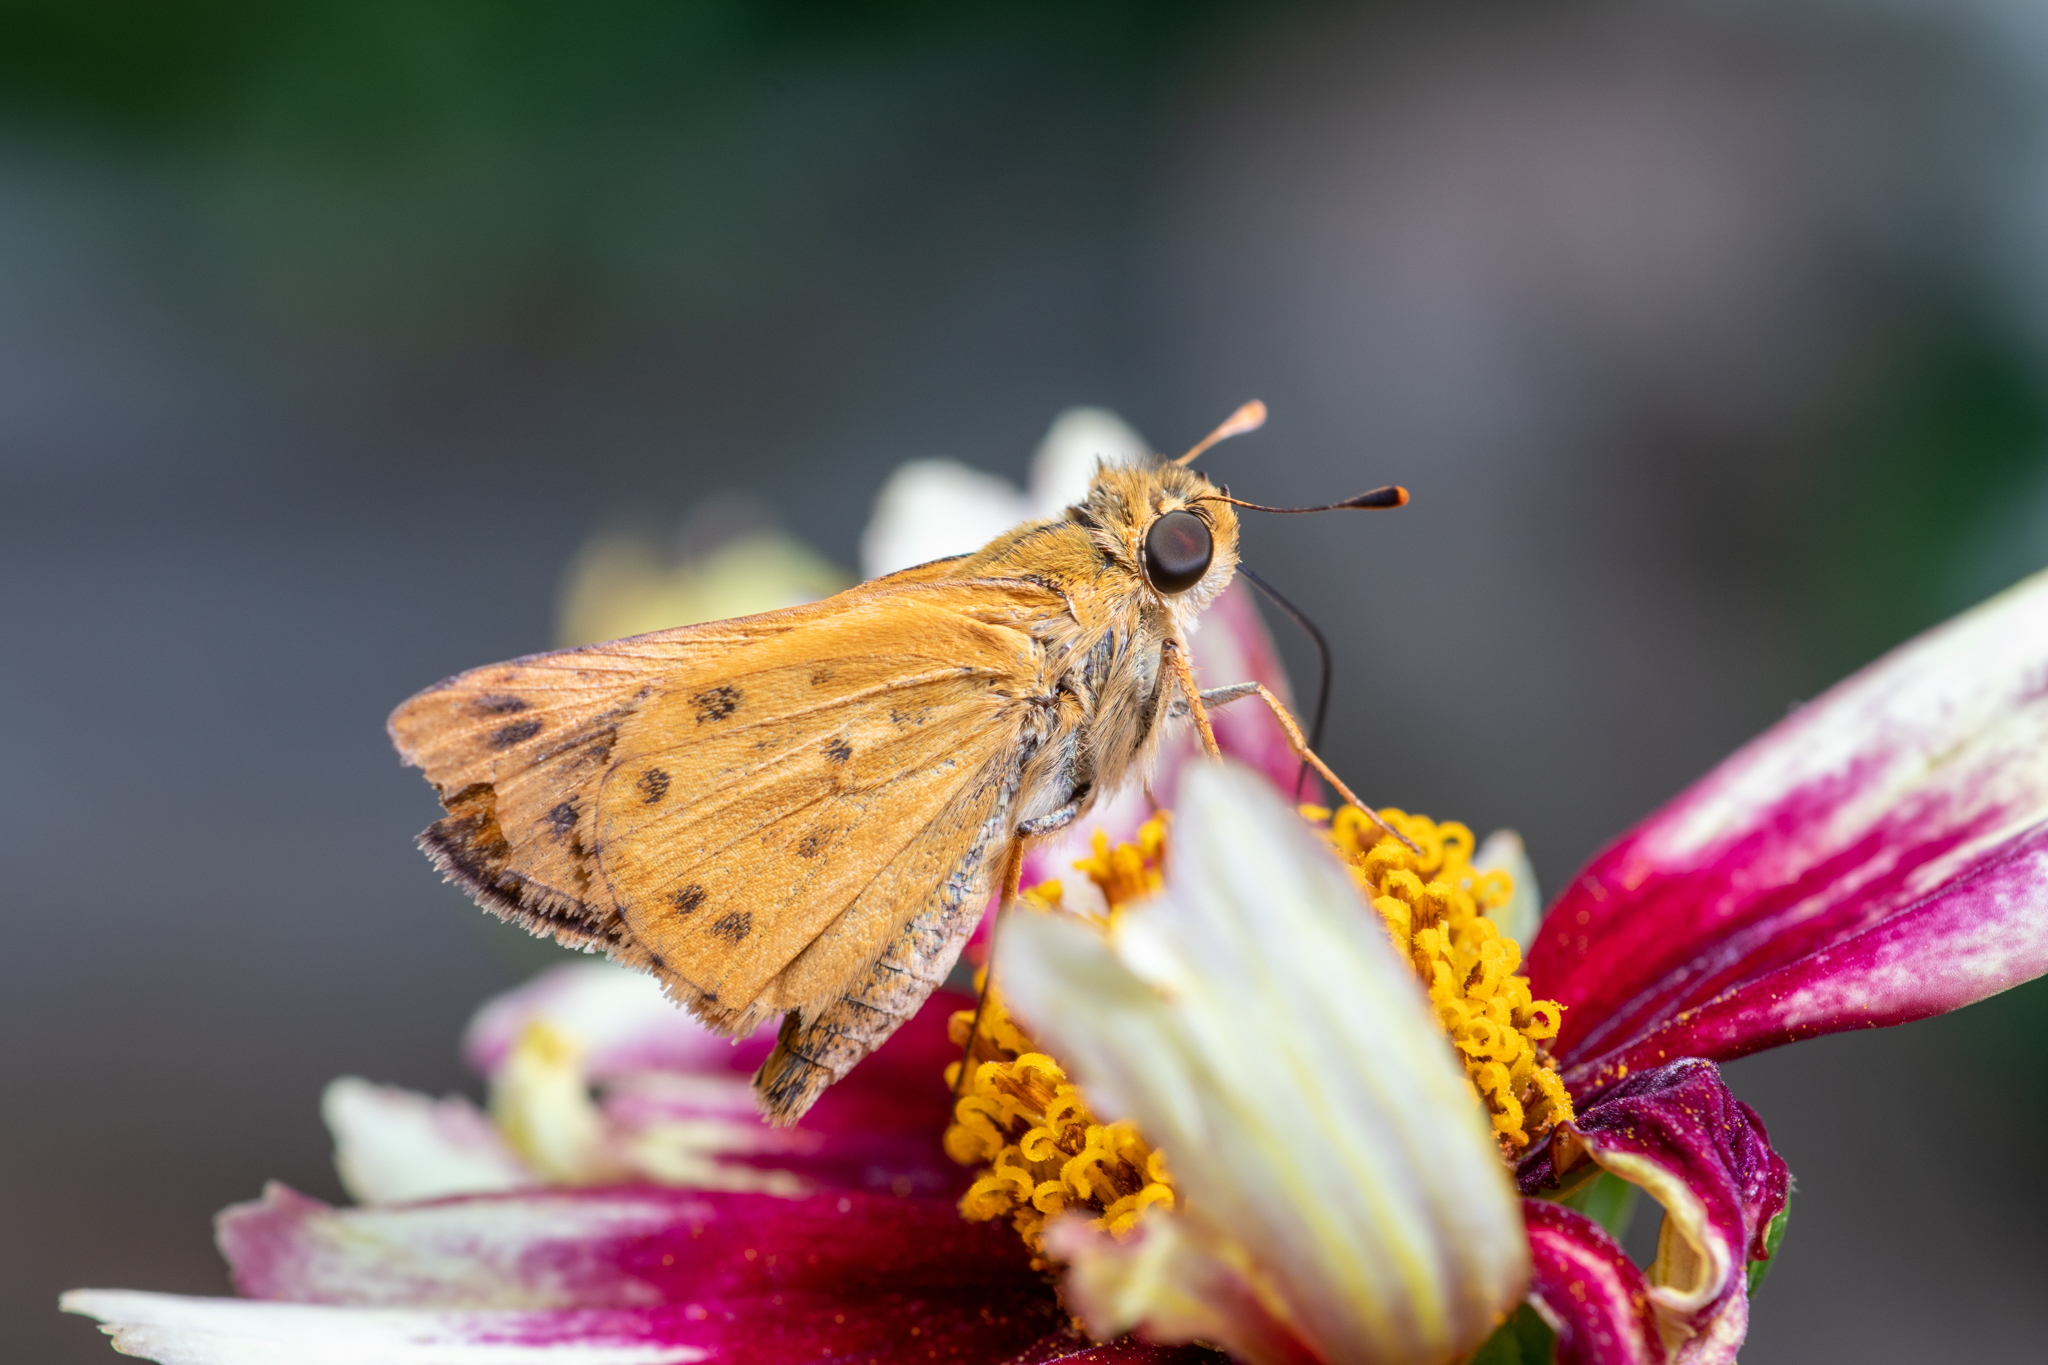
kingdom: Animalia
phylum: Arthropoda
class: Insecta
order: Lepidoptera
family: Hesperiidae
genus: Hylephila
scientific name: Hylephila phyleus
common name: Fiery skipper
